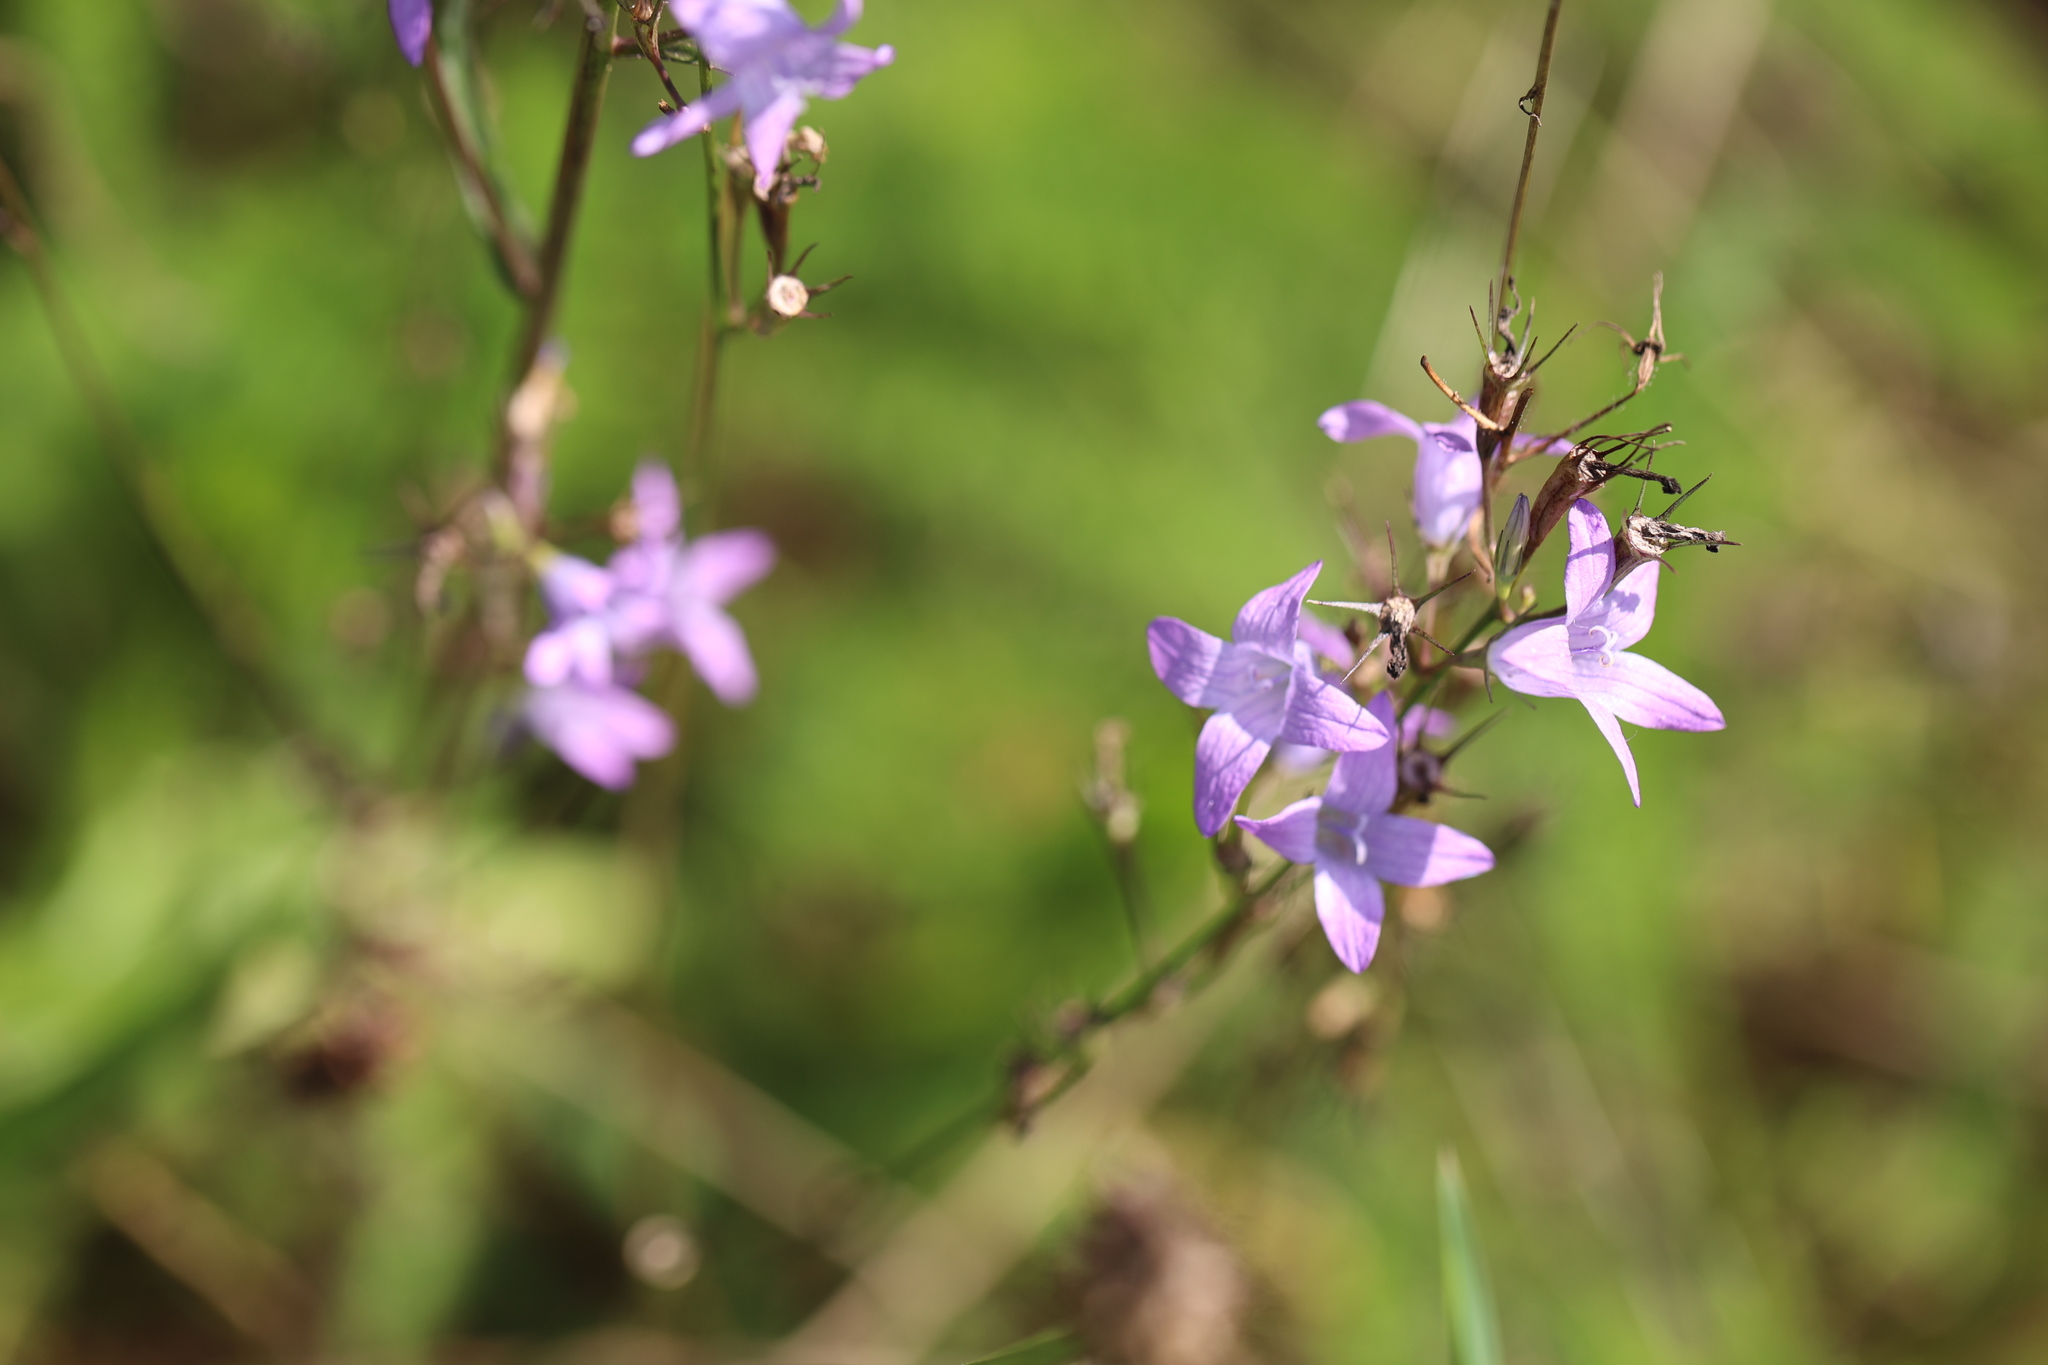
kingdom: Plantae
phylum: Tracheophyta
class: Magnoliopsida
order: Asterales
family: Campanulaceae
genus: Campanula
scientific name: Campanula rapunculus
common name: Rampion bellflower
